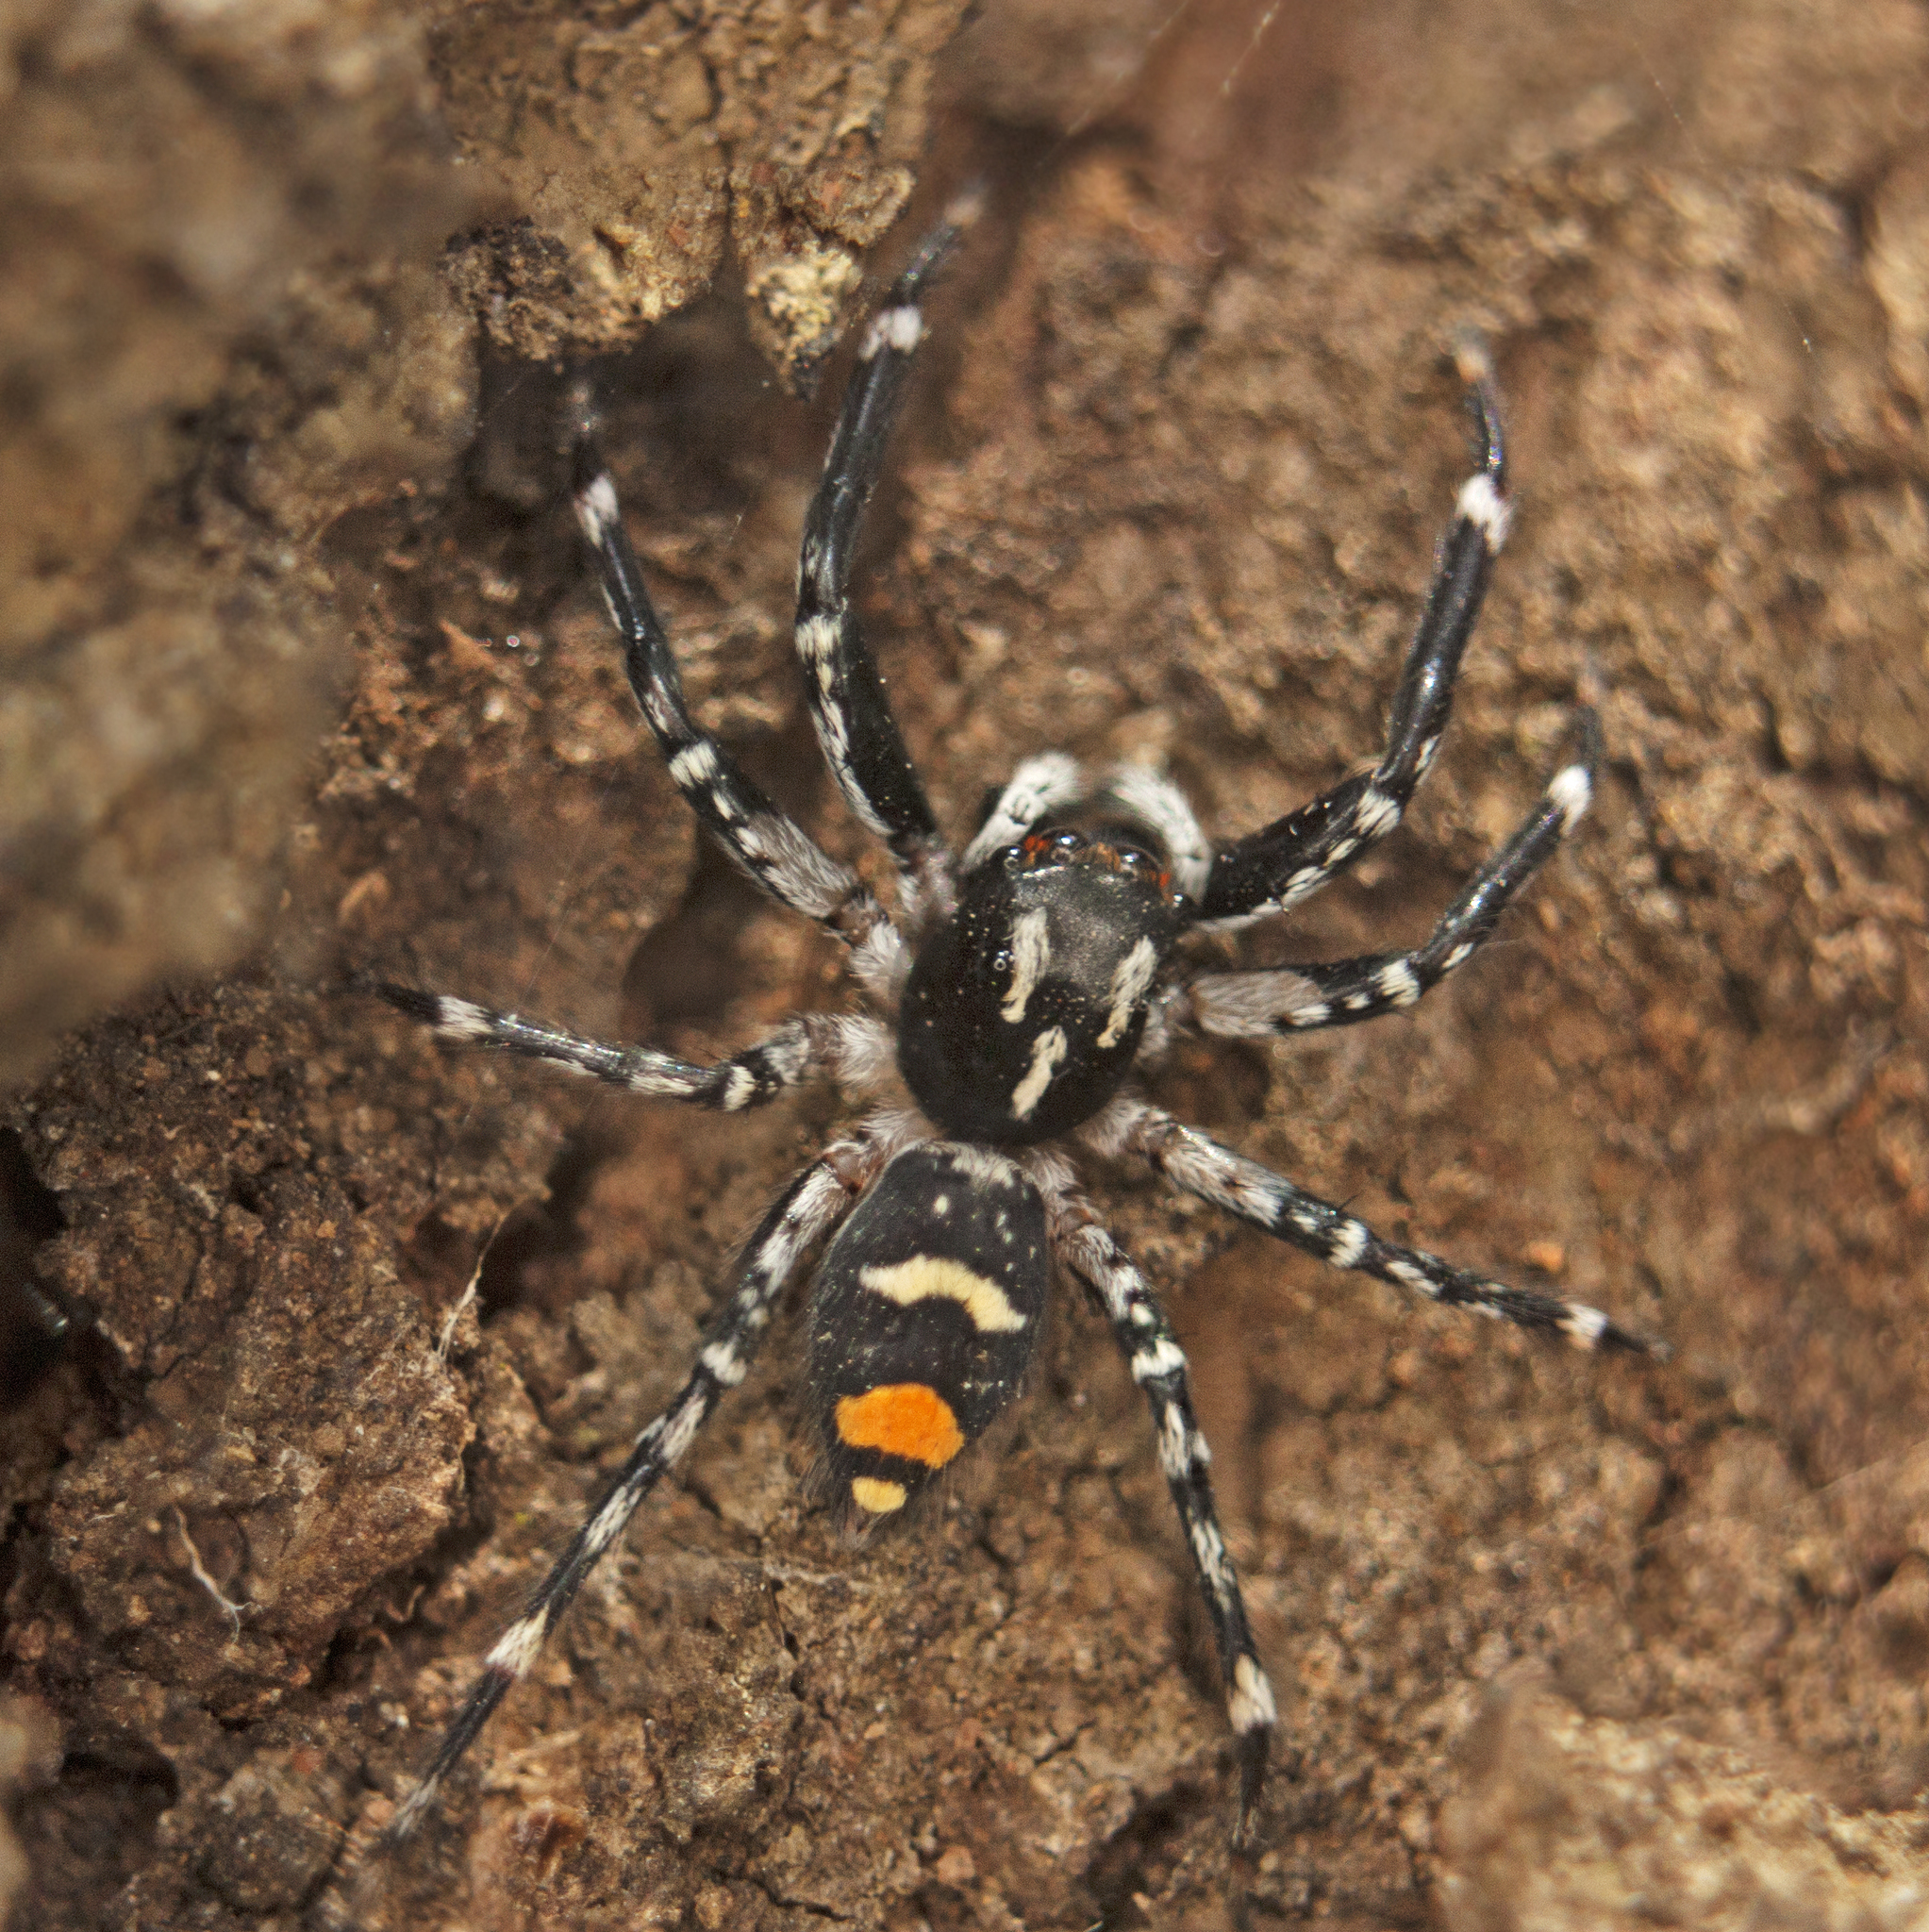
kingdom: Animalia
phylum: Arthropoda
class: Arachnida
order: Araneae
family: Salticidae
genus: Astia
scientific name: Astia
